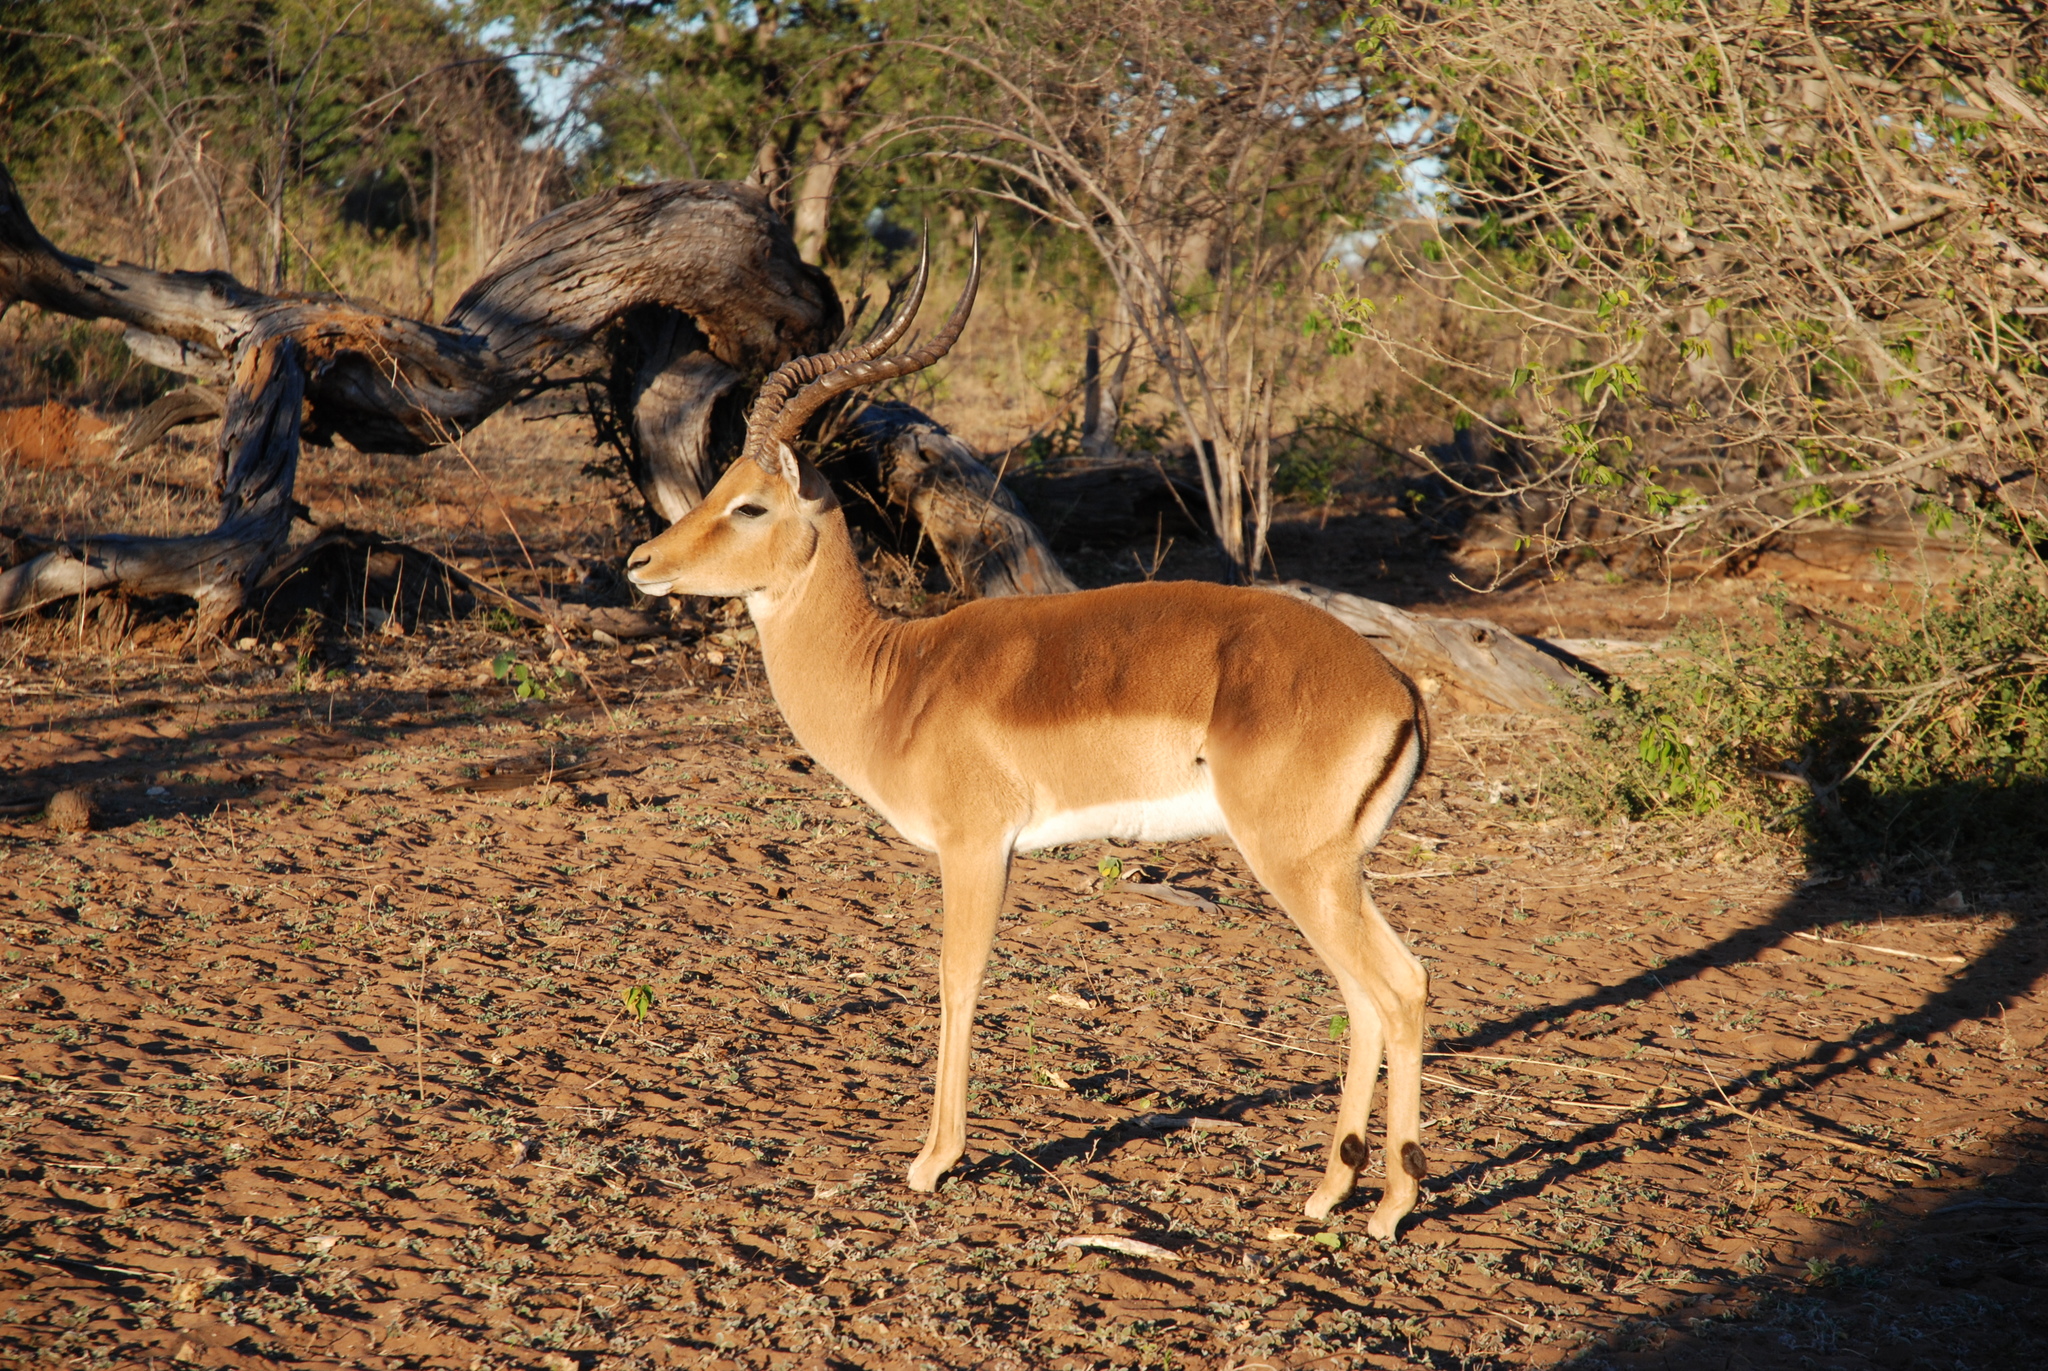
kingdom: Animalia
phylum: Chordata
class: Mammalia
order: Artiodactyla
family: Bovidae
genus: Aepyceros
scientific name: Aepyceros melampus
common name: Impala
